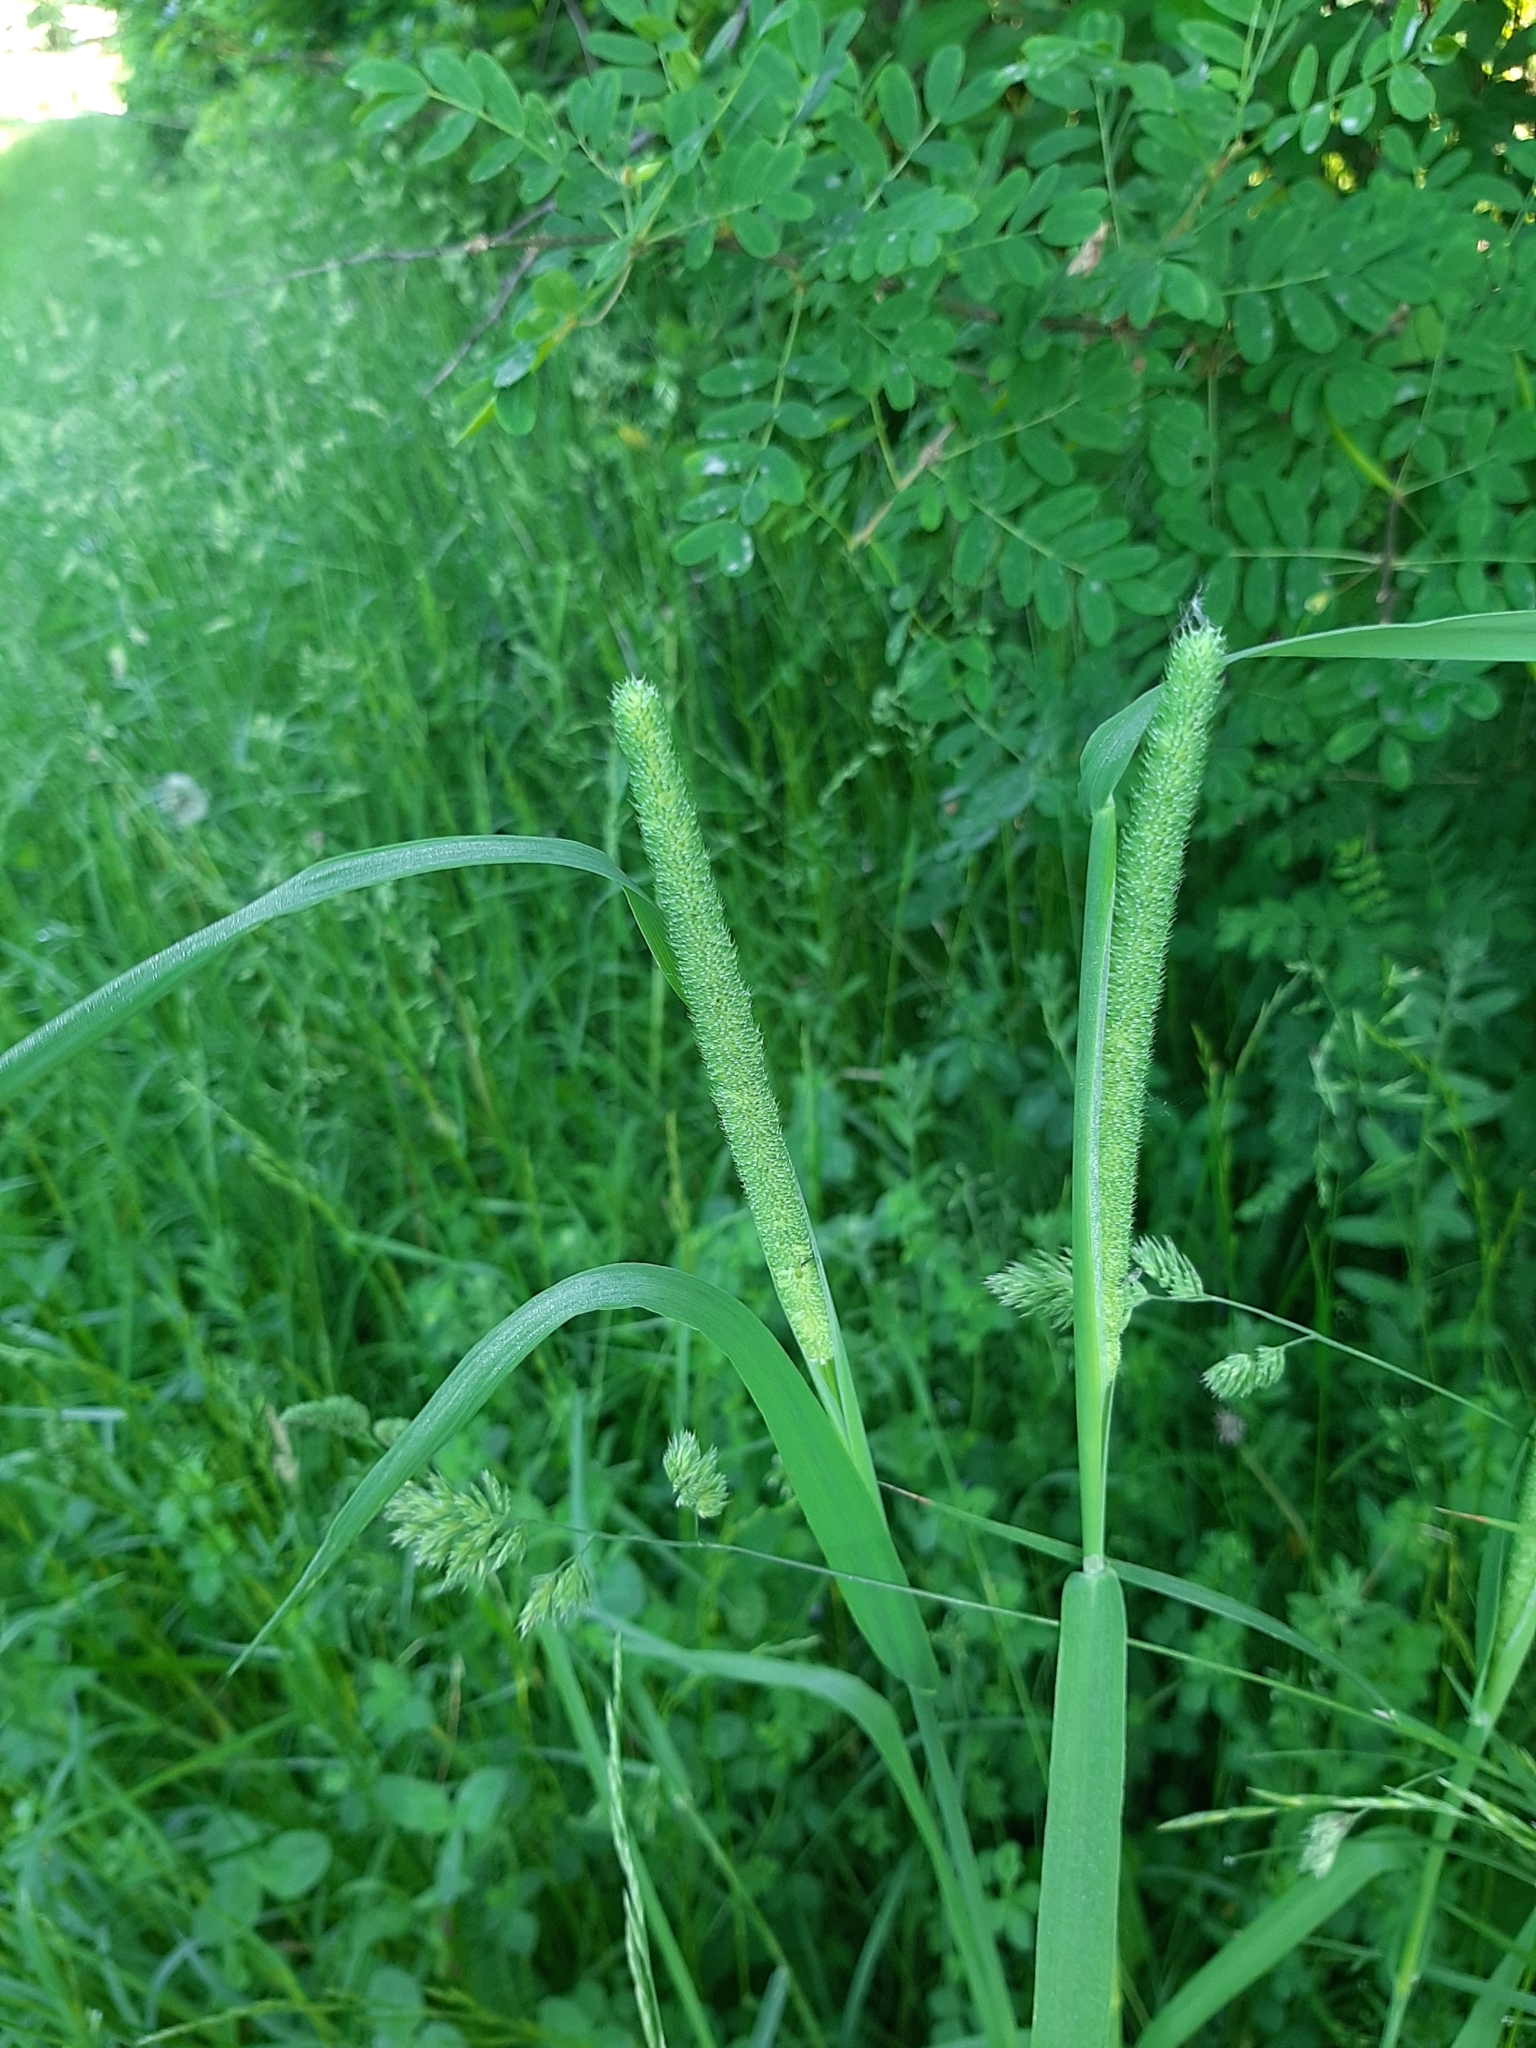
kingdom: Plantae
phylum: Tracheophyta
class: Liliopsida
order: Poales
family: Poaceae
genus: Phleum
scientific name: Phleum pratense
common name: Timothy grass
